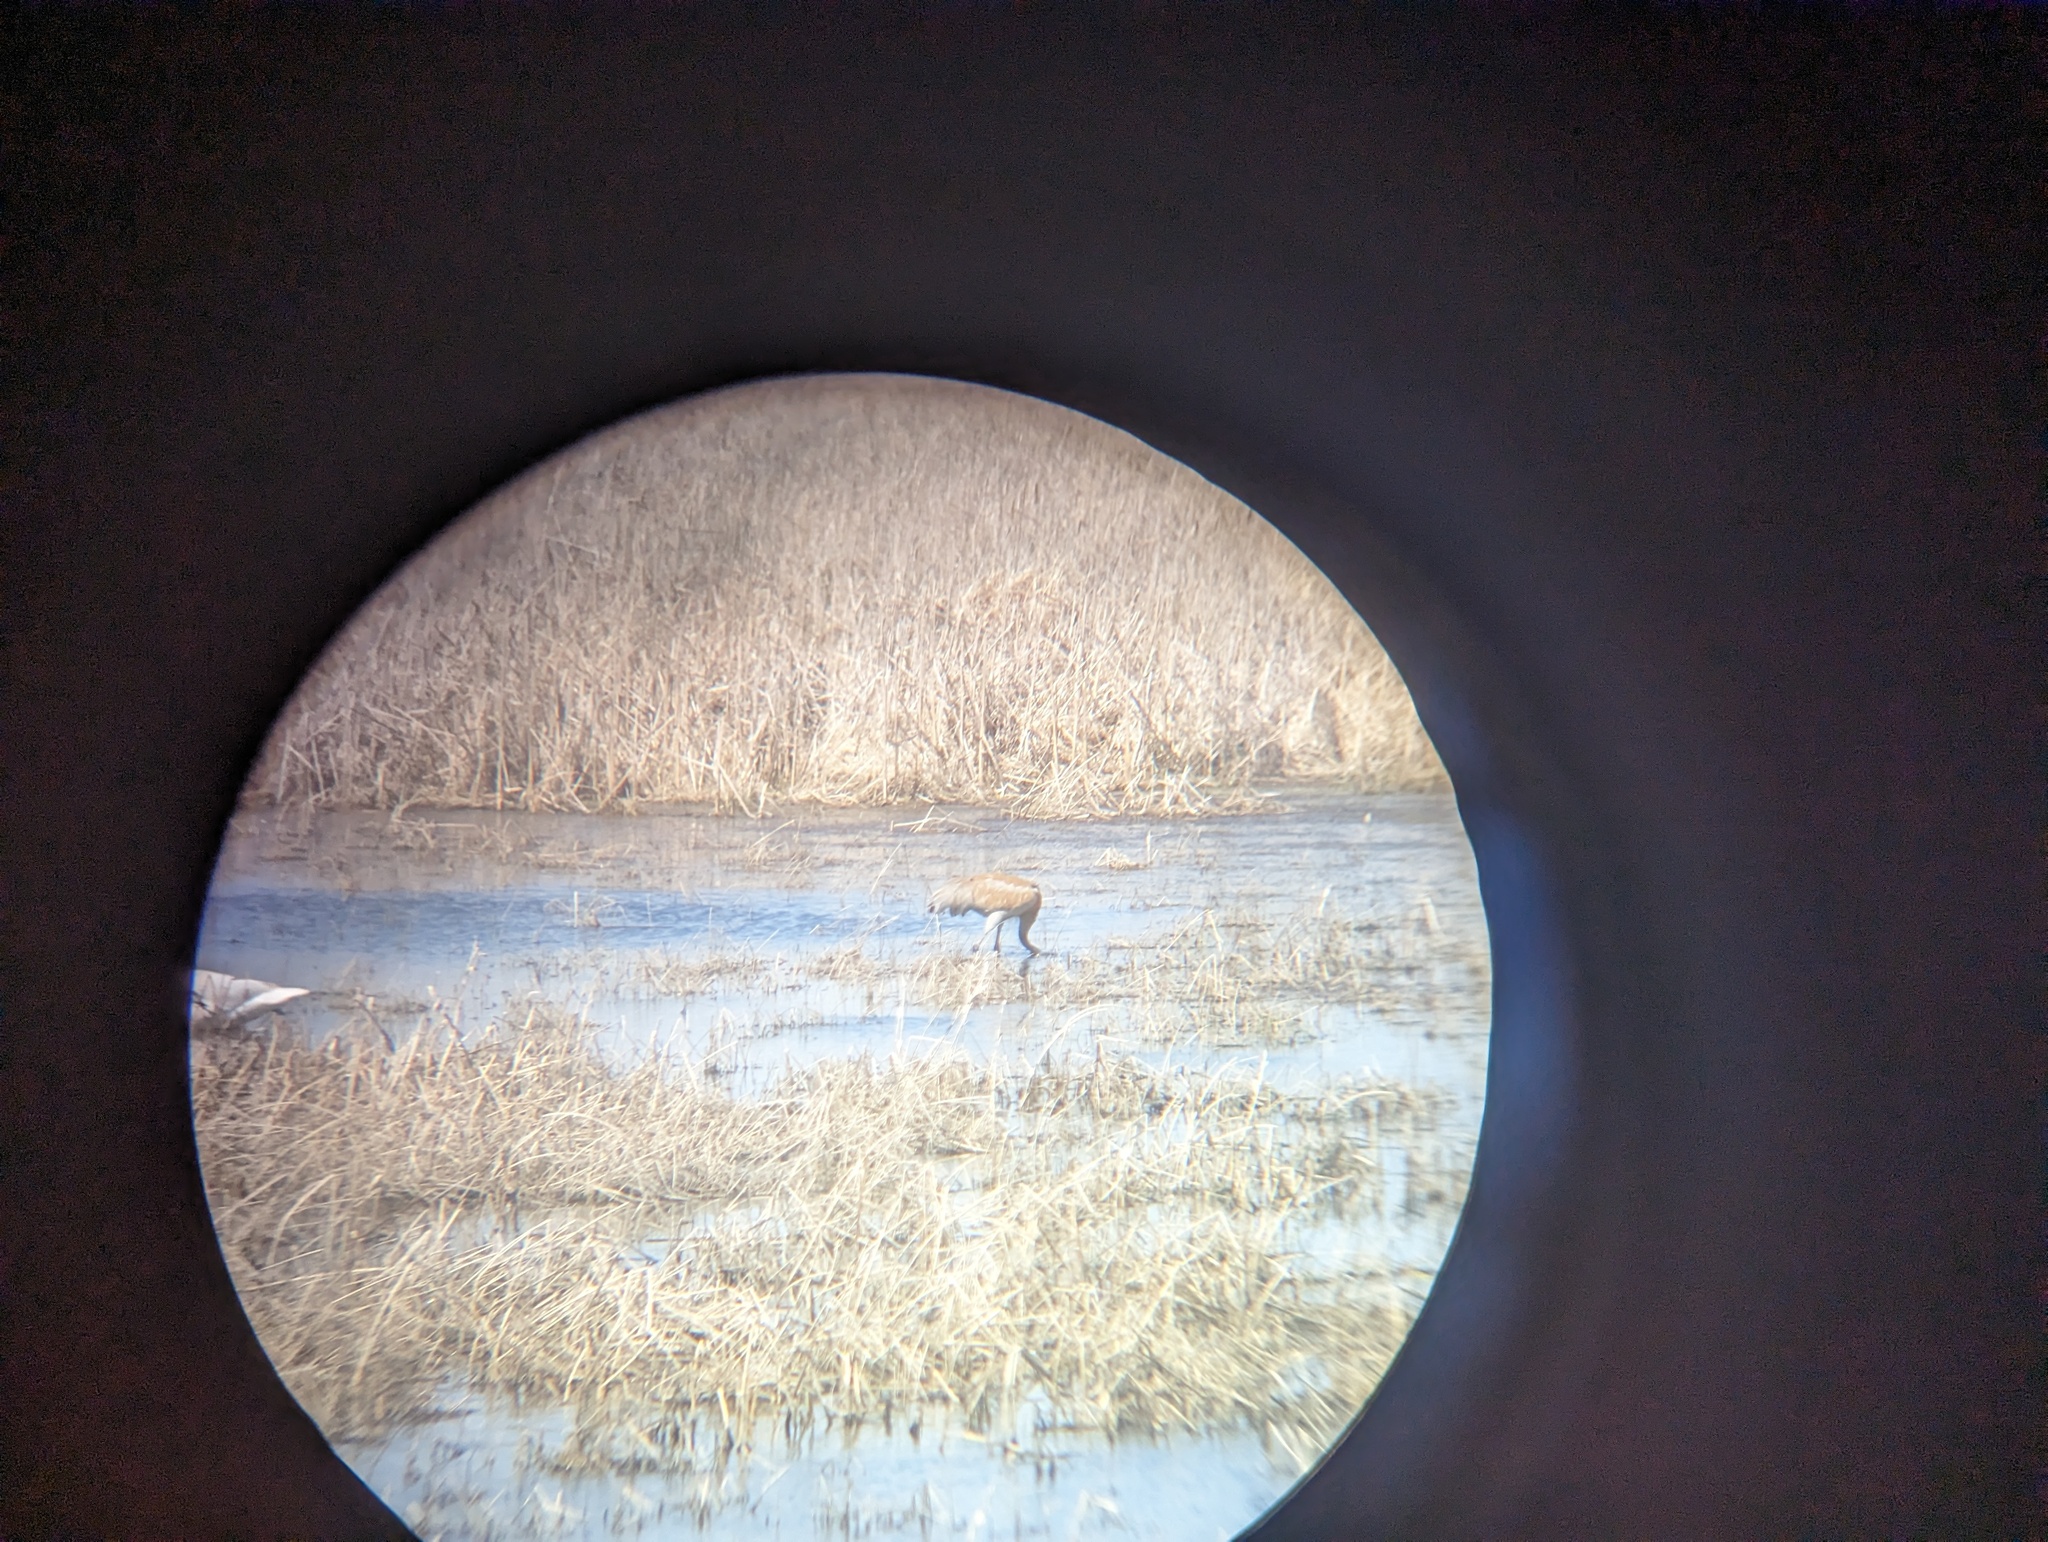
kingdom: Animalia
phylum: Chordata
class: Aves
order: Gruiformes
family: Gruidae
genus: Grus
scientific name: Grus canadensis
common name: Sandhill crane
